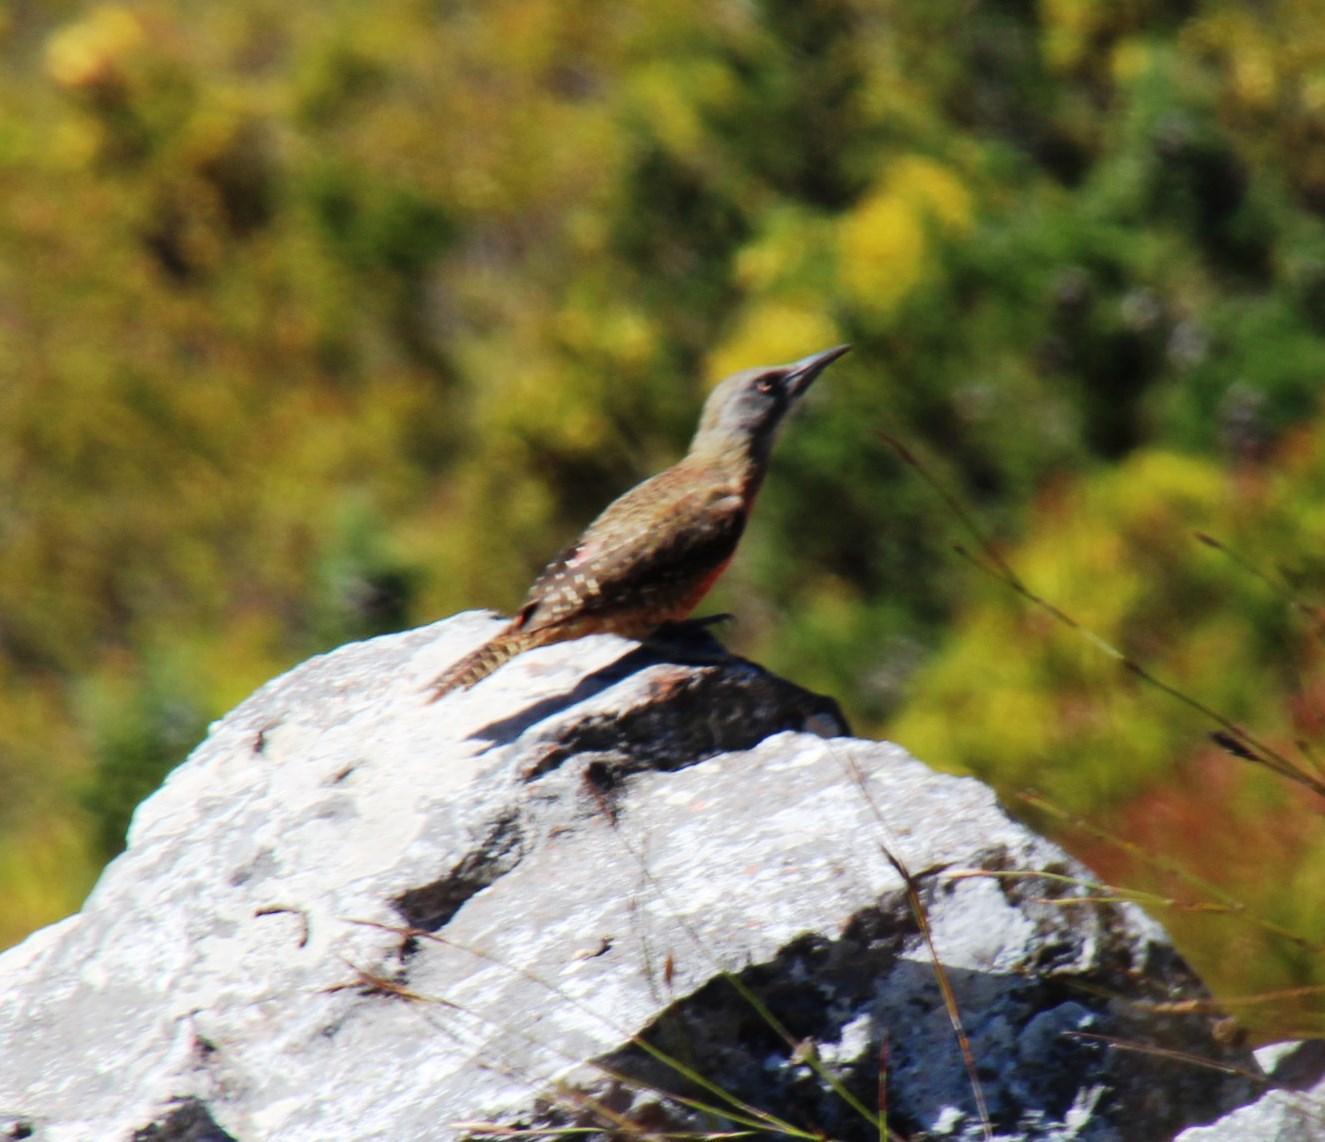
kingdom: Animalia
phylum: Chordata
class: Aves
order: Piciformes
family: Picidae
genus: Geocolaptes
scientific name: Geocolaptes olivaceus
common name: Ground woodpecker
